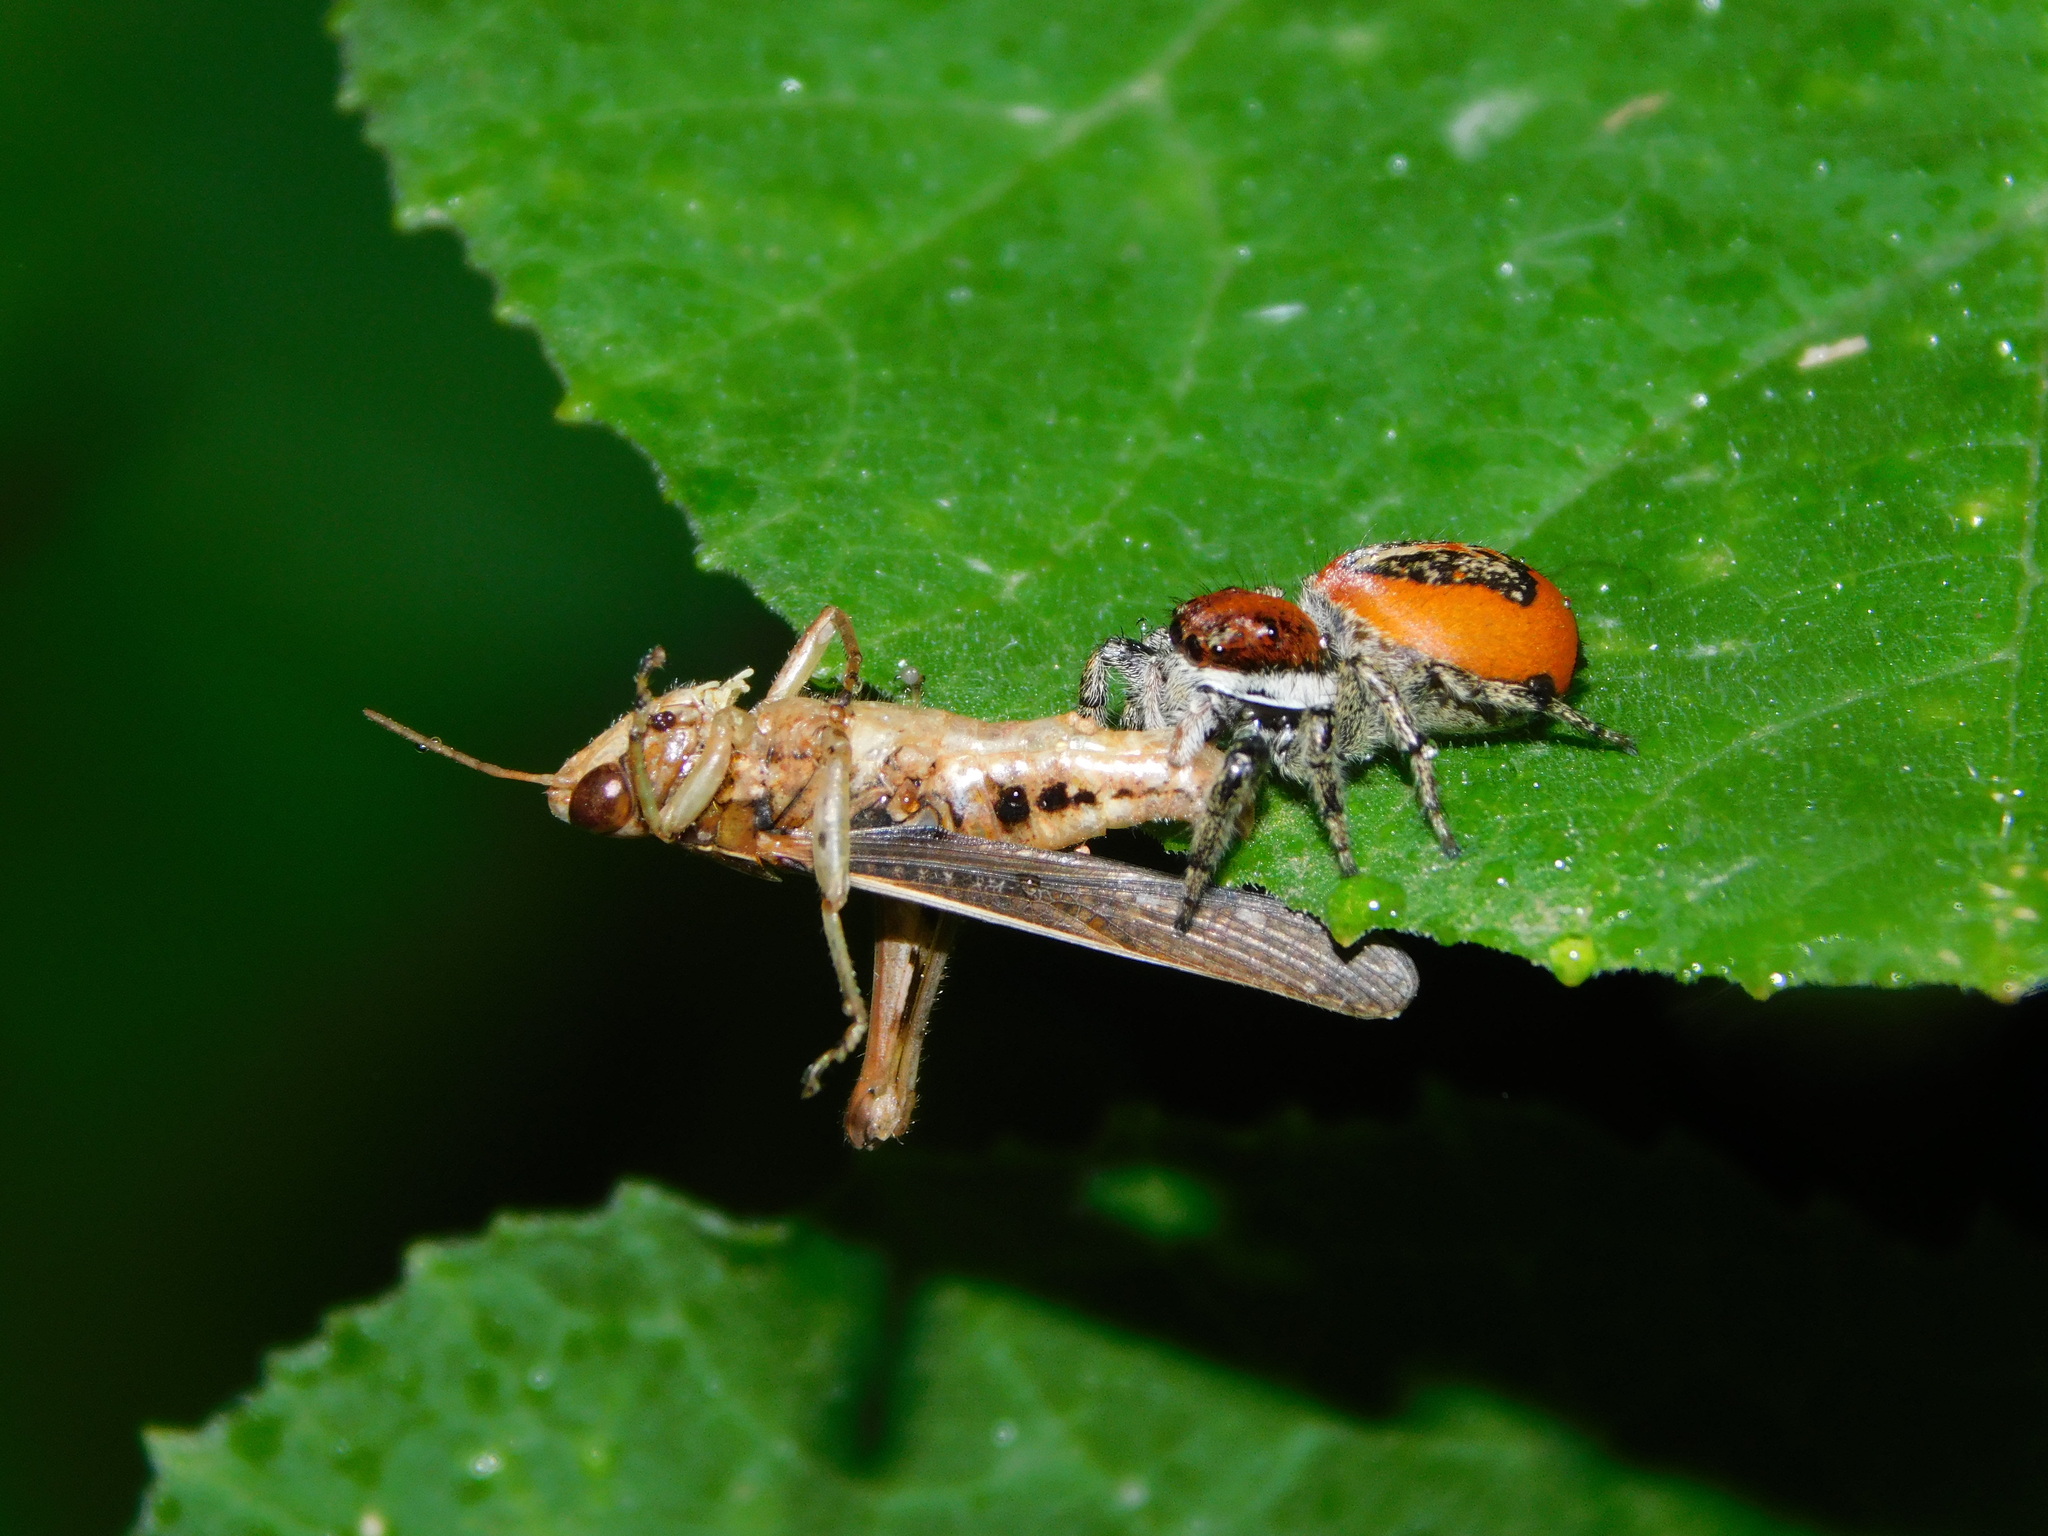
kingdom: Animalia
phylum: Arthropoda
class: Arachnida
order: Araneae
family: Salticidae
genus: Phiale
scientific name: Phiale roburifoliata
